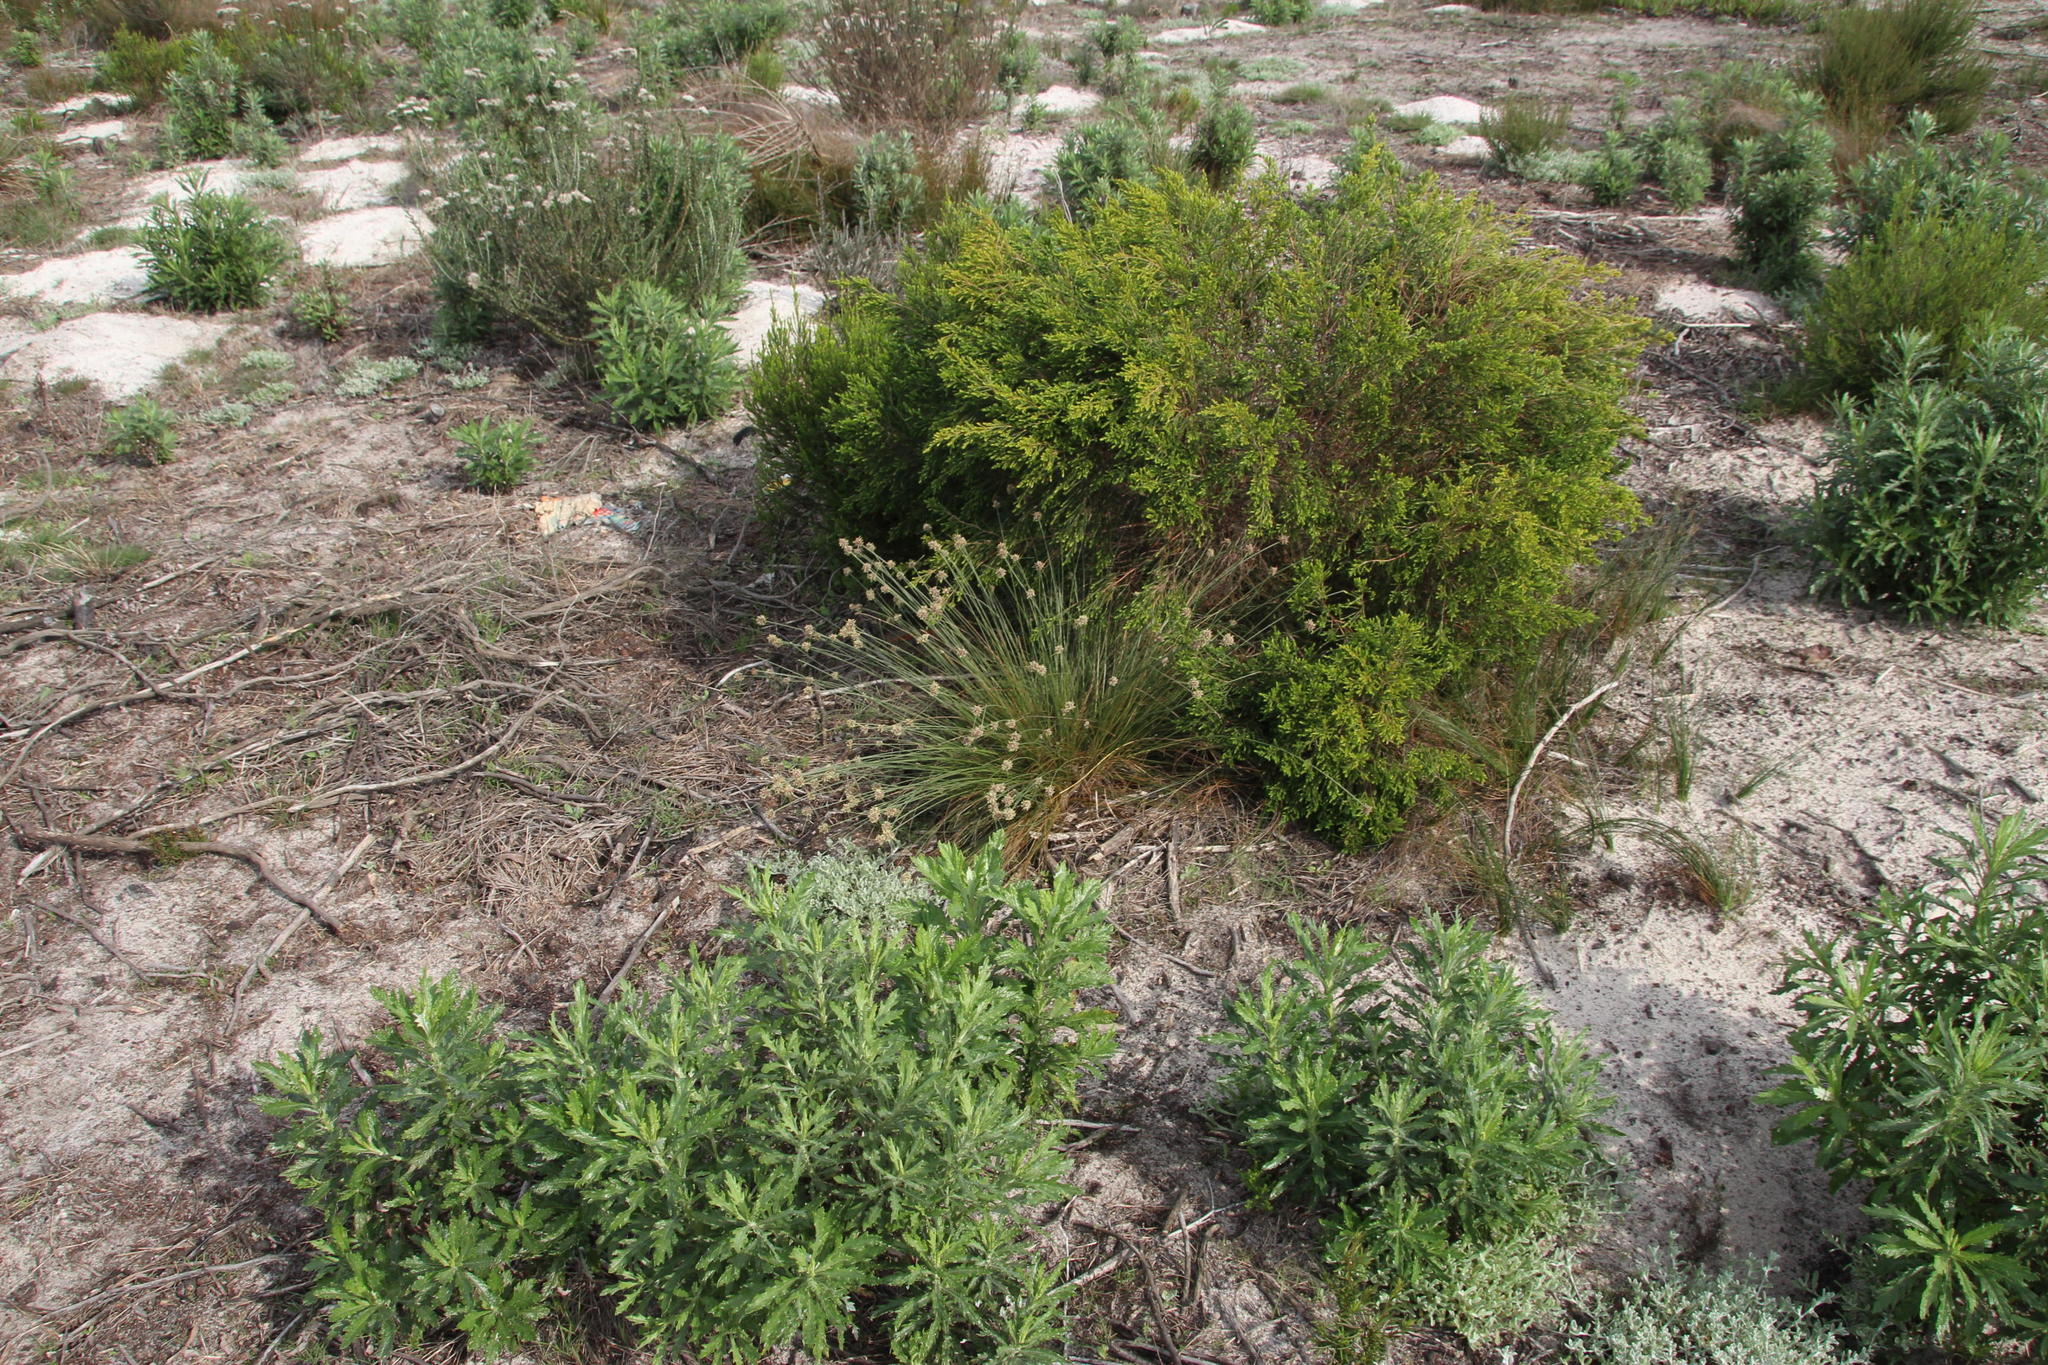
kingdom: Plantae
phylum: Tracheophyta
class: Magnoliopsida
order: Asterales
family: Asteraceae
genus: Senecio
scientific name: Senecio pterophorus
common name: Shoddy ragwort
